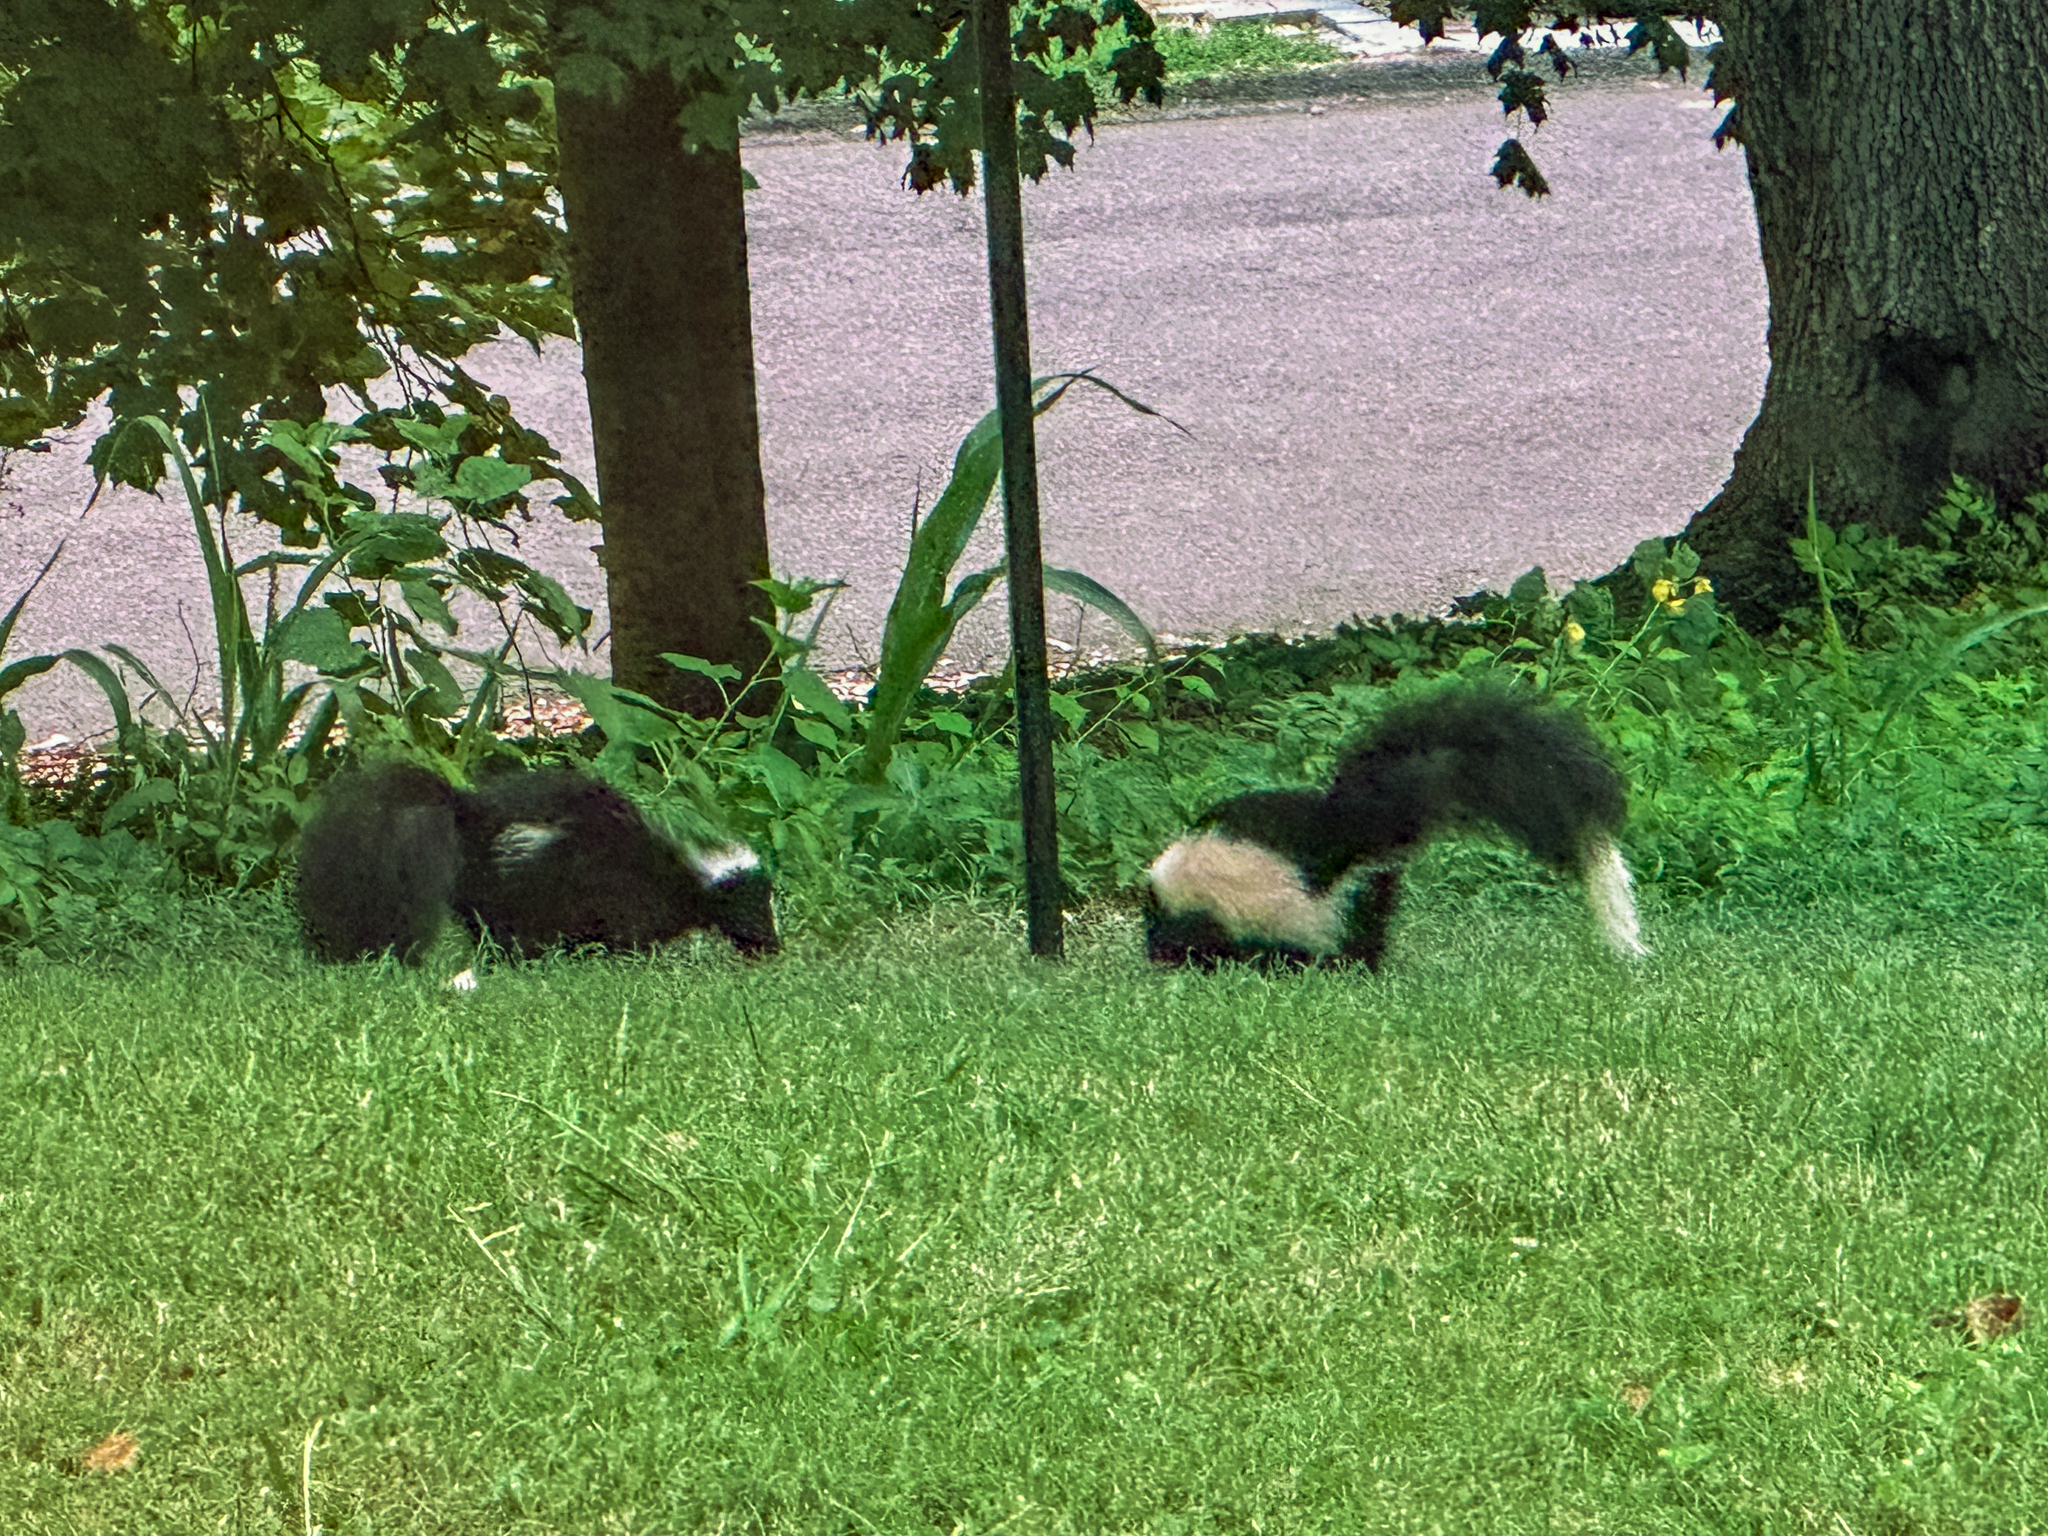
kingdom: Animalia
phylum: Chordata
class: Mammalia
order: Carnivora
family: Mephitidae
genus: Mephitis
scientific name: Mephitis mephitis
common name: Striped skunk
